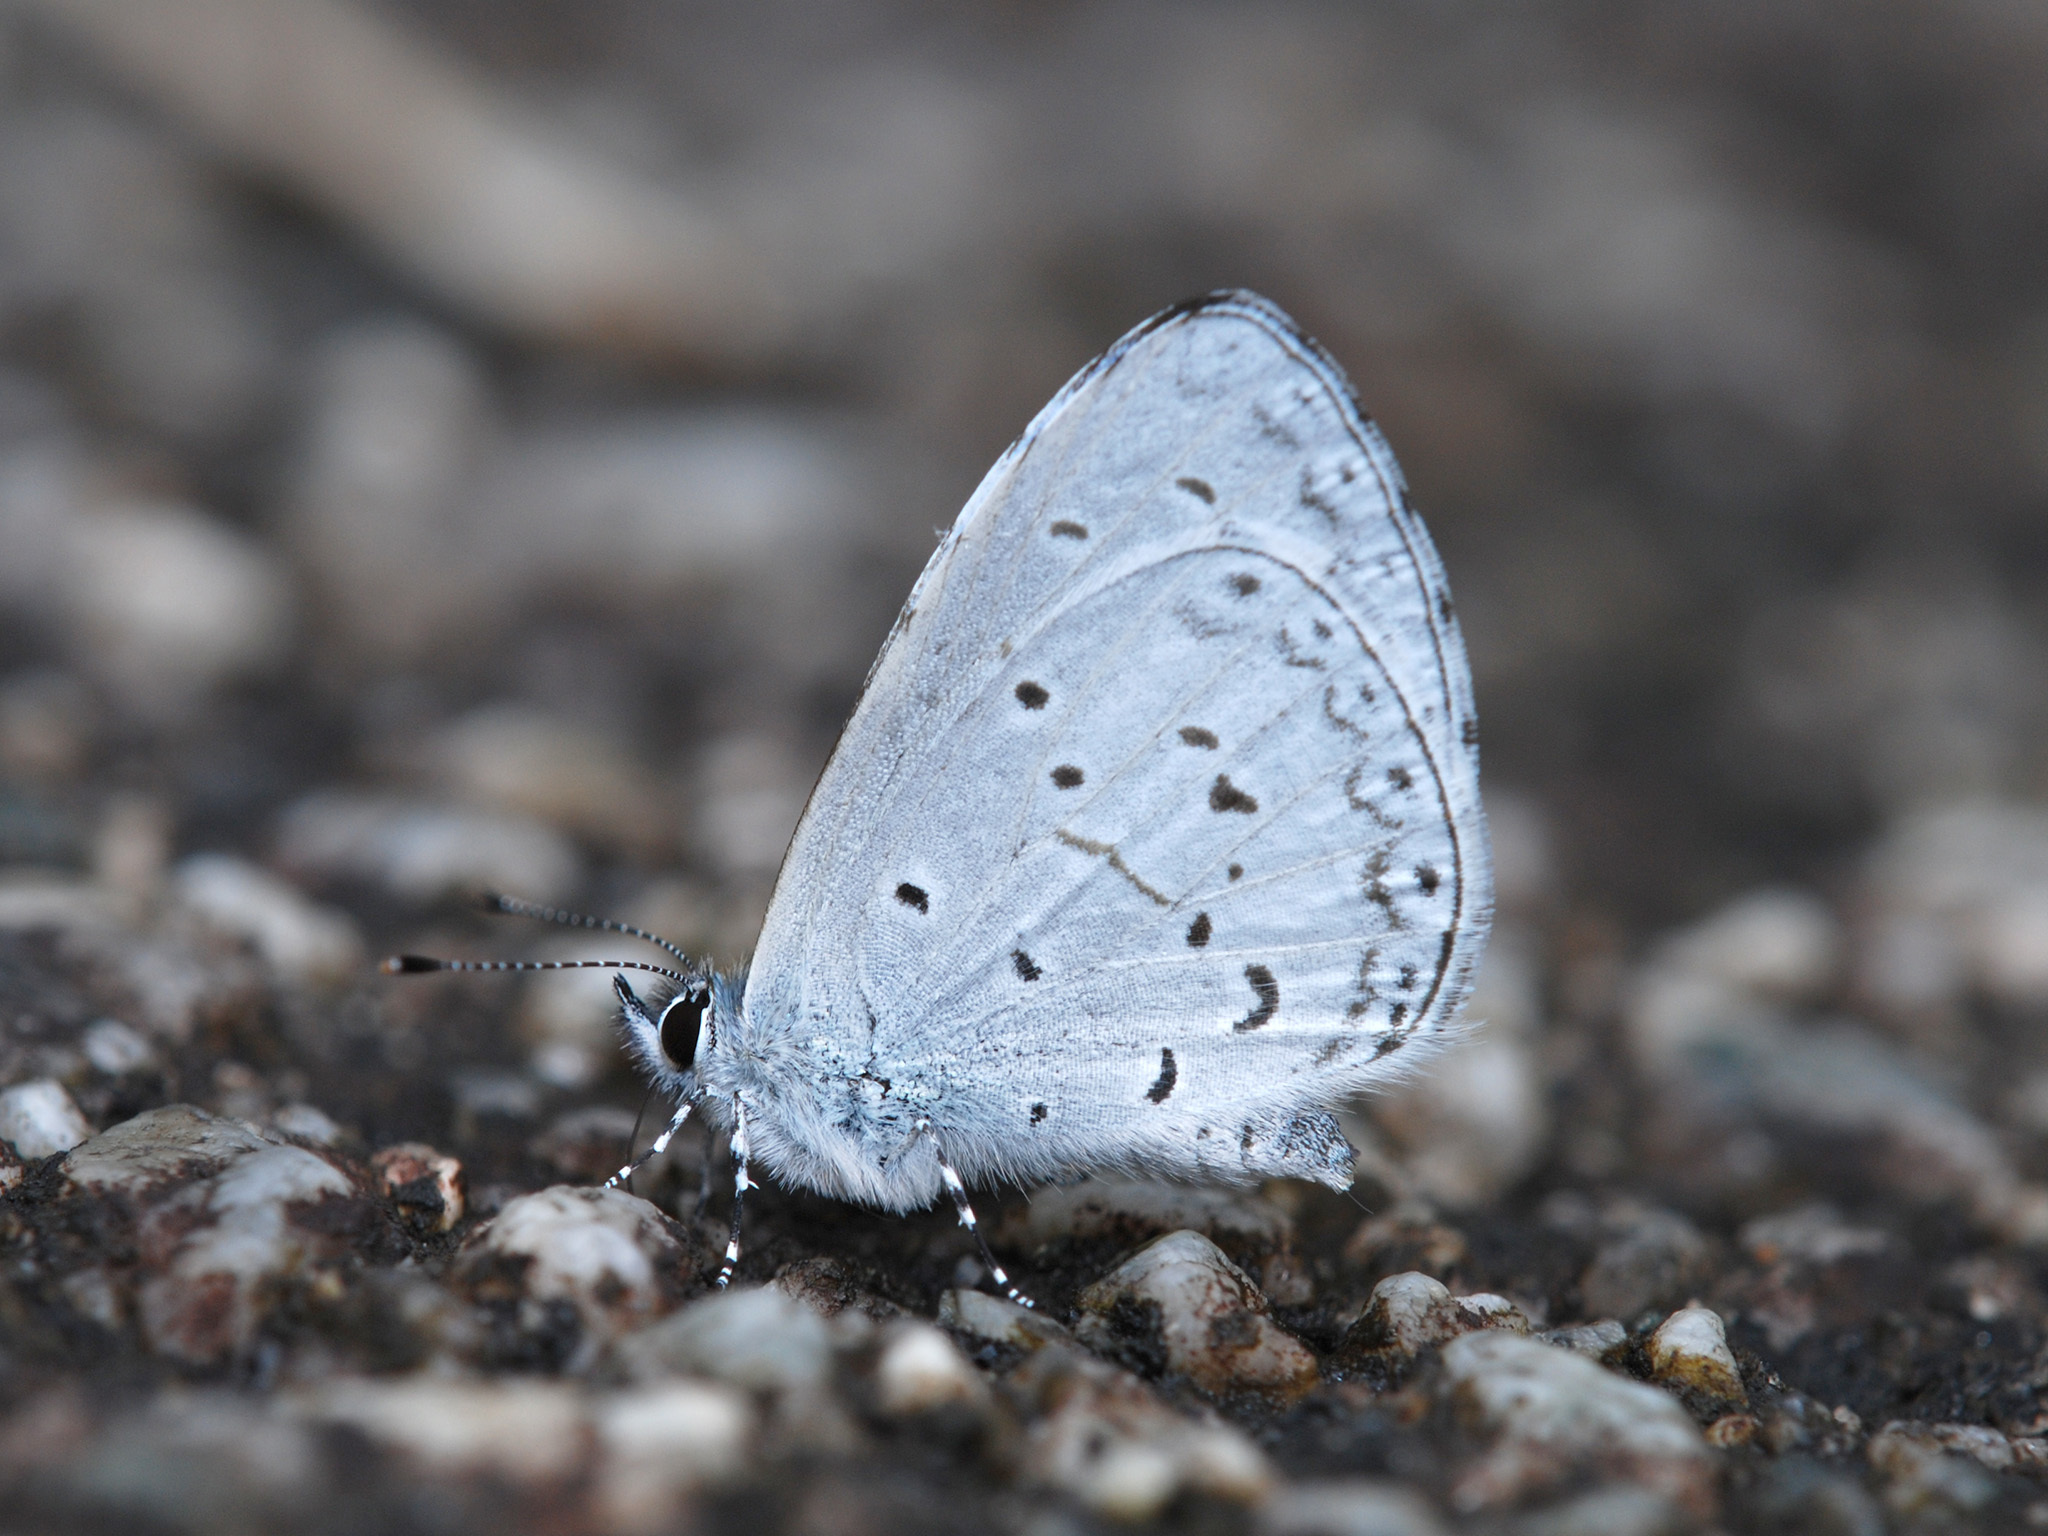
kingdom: Animalia
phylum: Arthropoda
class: Insecta
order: Lepidoptera
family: Lycaenidae
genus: Udara
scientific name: Udara dilectus
